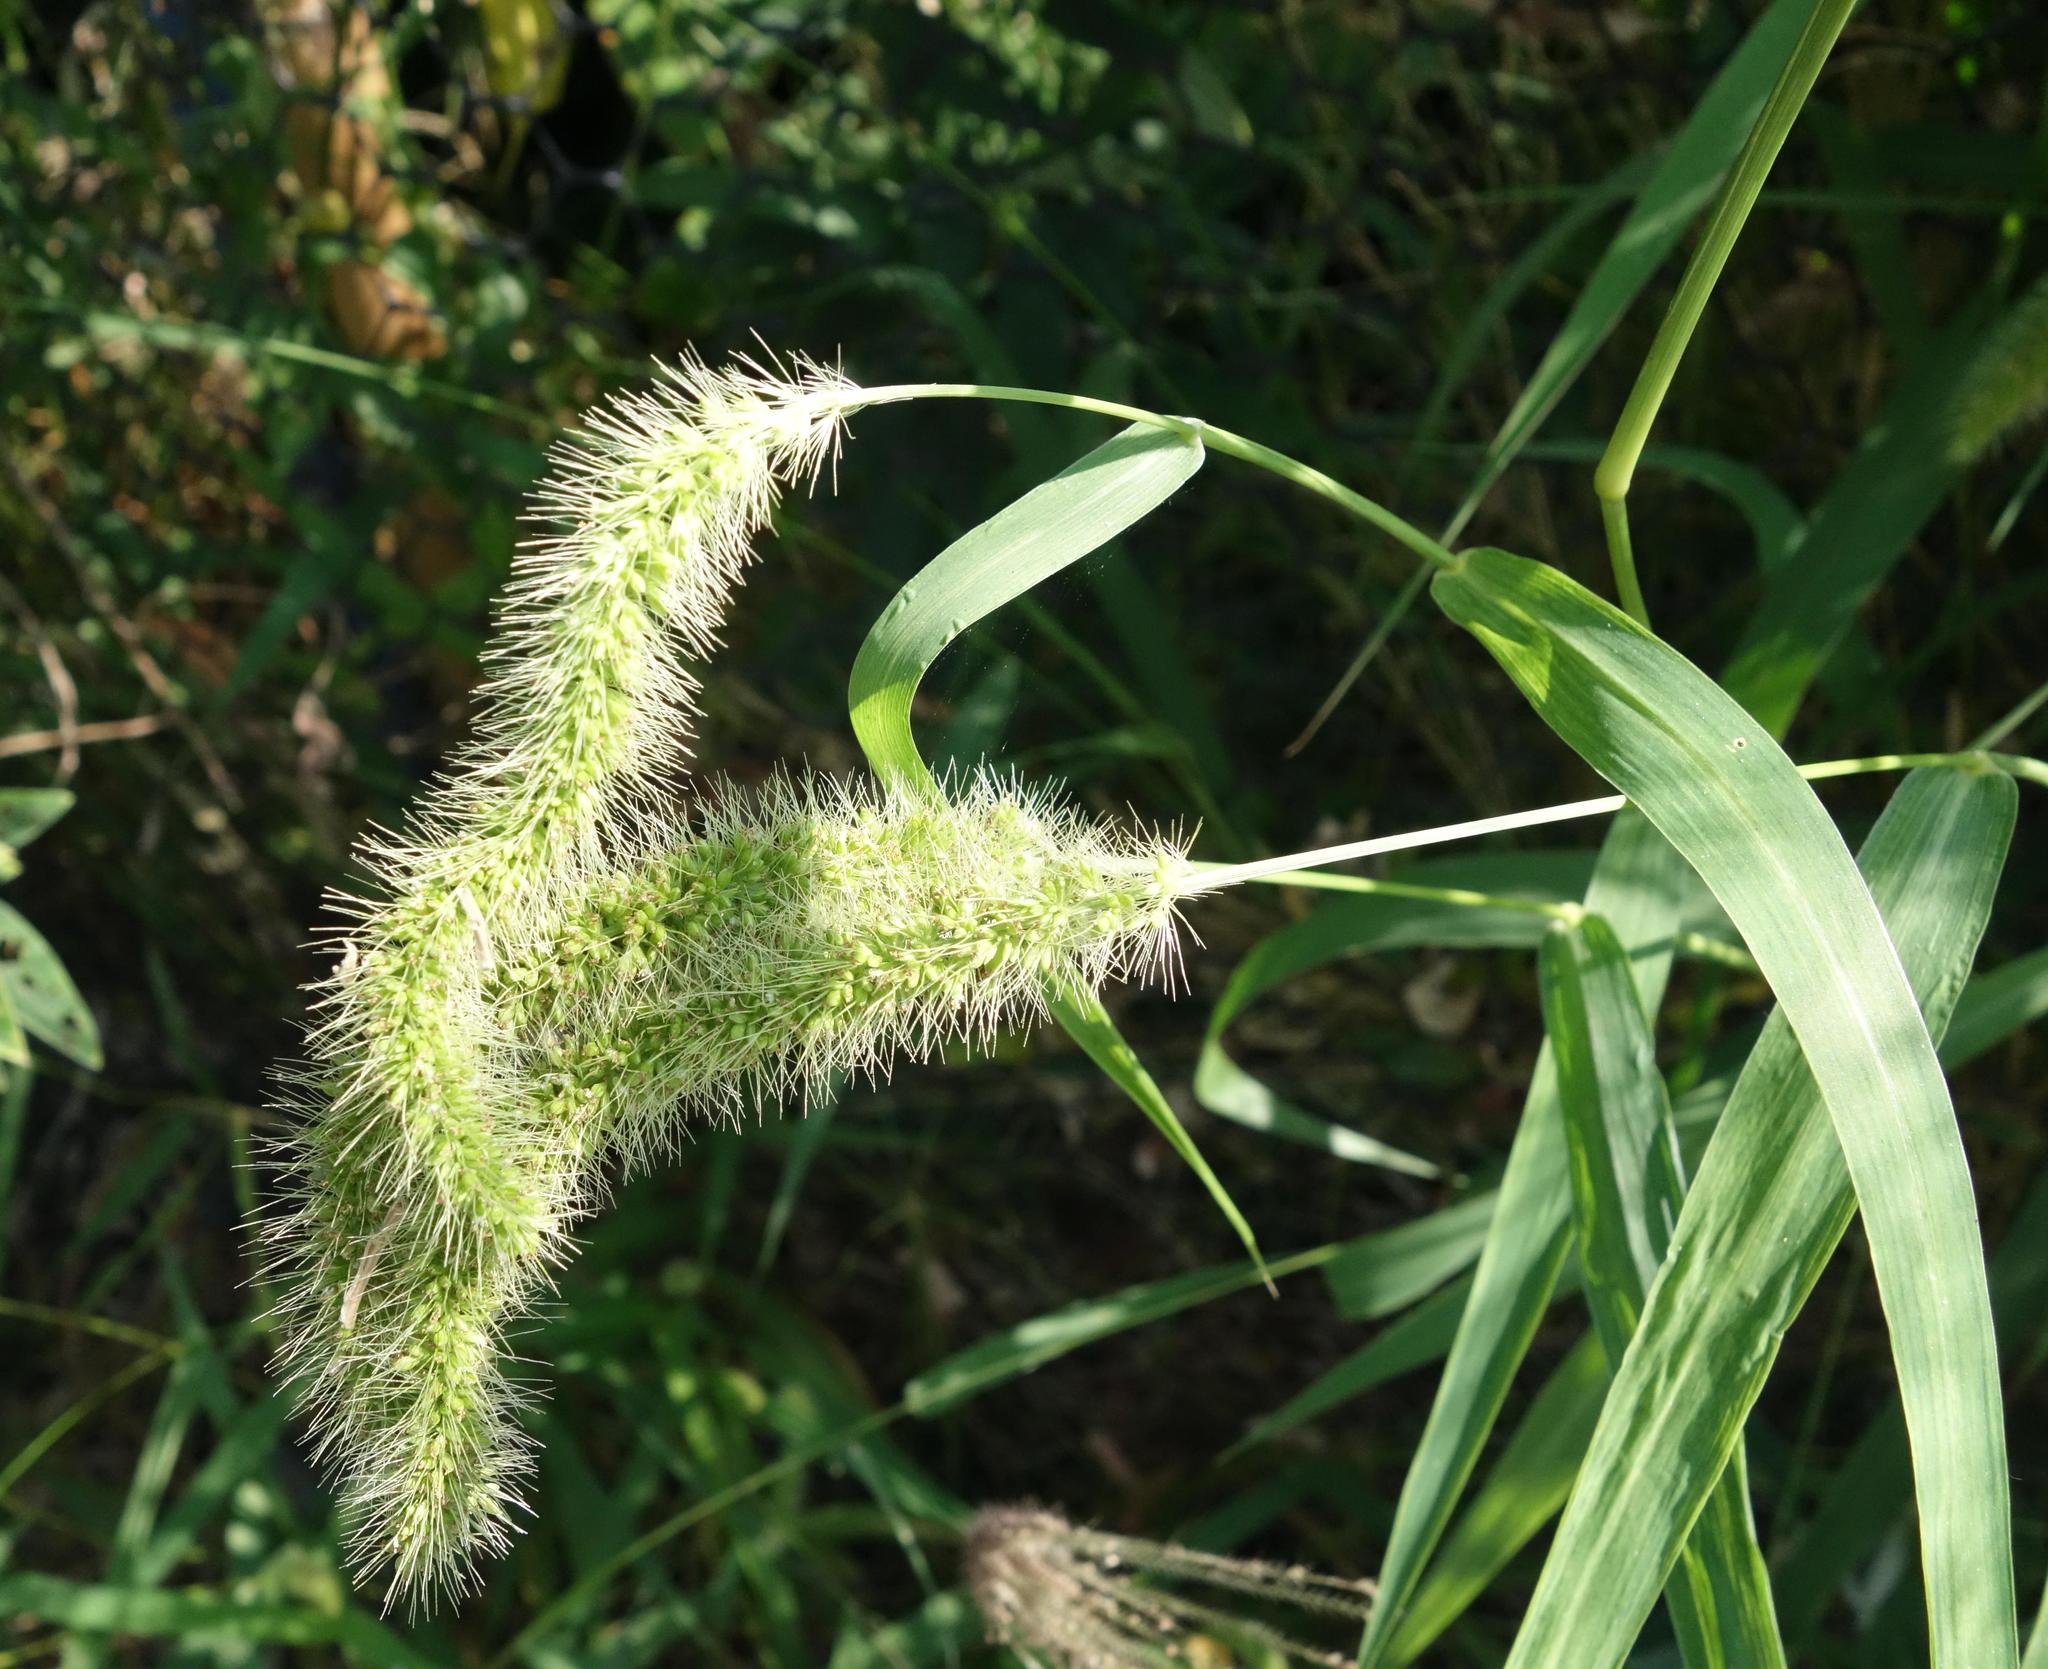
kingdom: Plantae
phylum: Tracheophyta
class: Liliopsida
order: Poales
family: Poaceae
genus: Setaria
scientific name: Setaria verticillata
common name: Hooked bristlegrass
